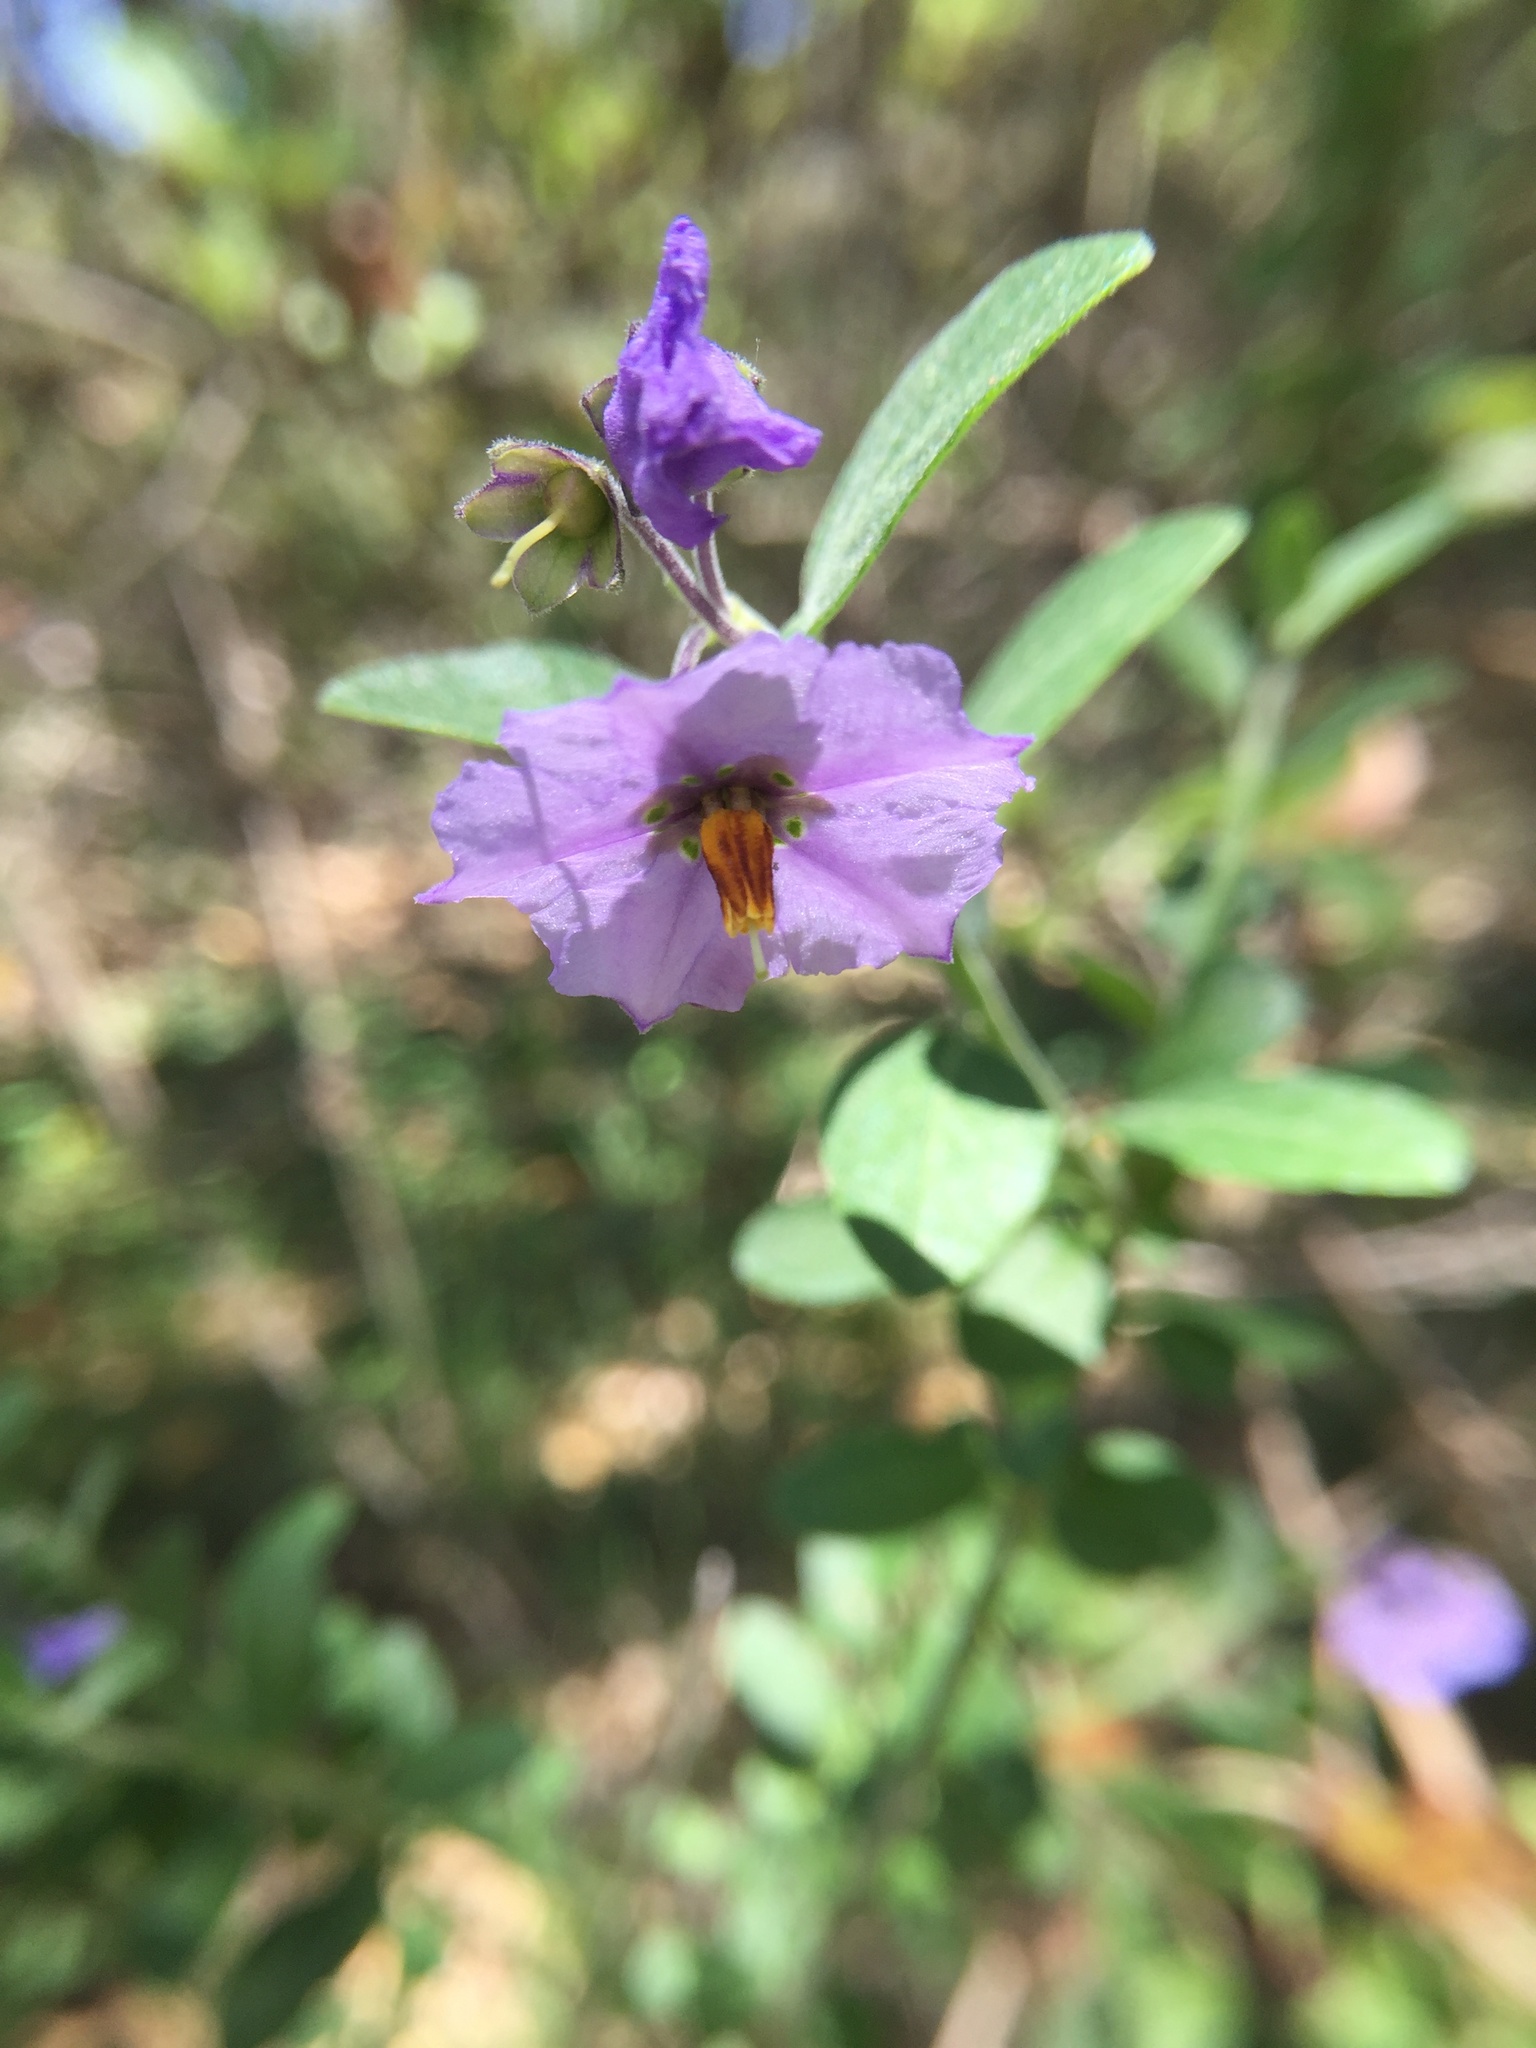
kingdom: Plantae
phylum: Tracheophyta
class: Magnoliopsida
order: Solanales
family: Solanaceae
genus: Solanum
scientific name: Solanum umbelliferum
